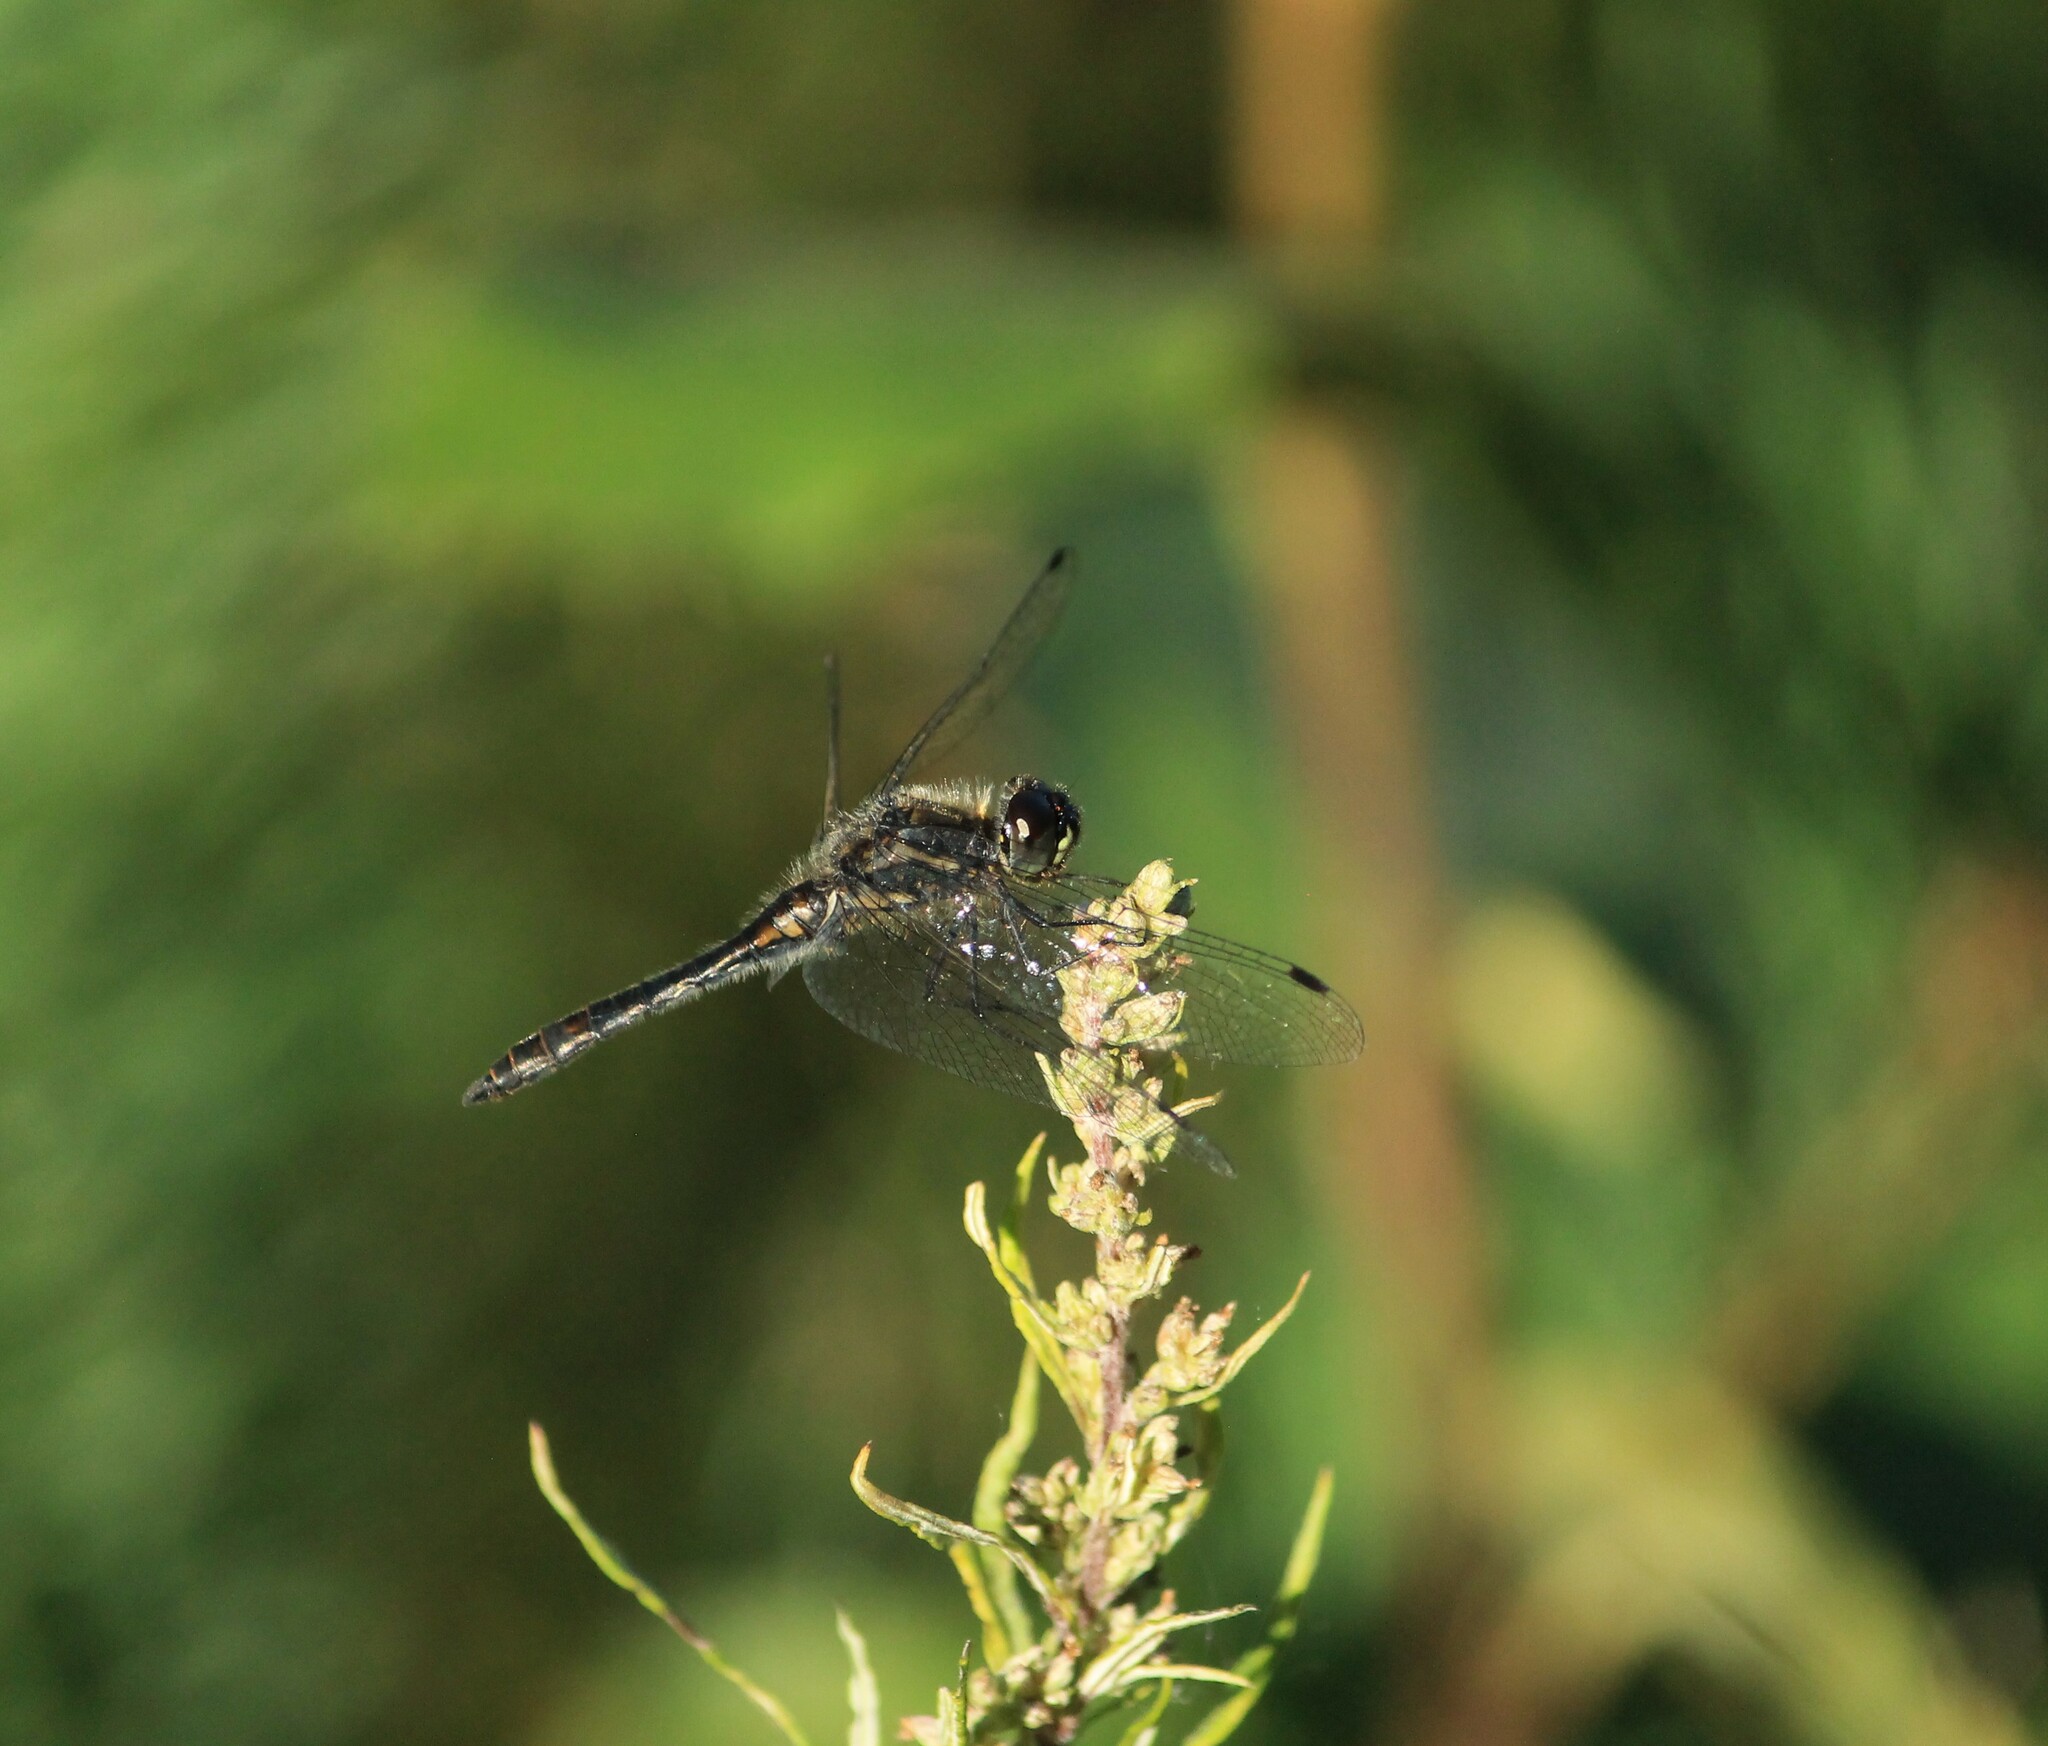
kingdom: Animalia
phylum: Arthropoda
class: Insecta
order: Odonata
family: Libellulidae
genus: Sympetrum
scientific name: Sympetrum danae
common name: Black darter
